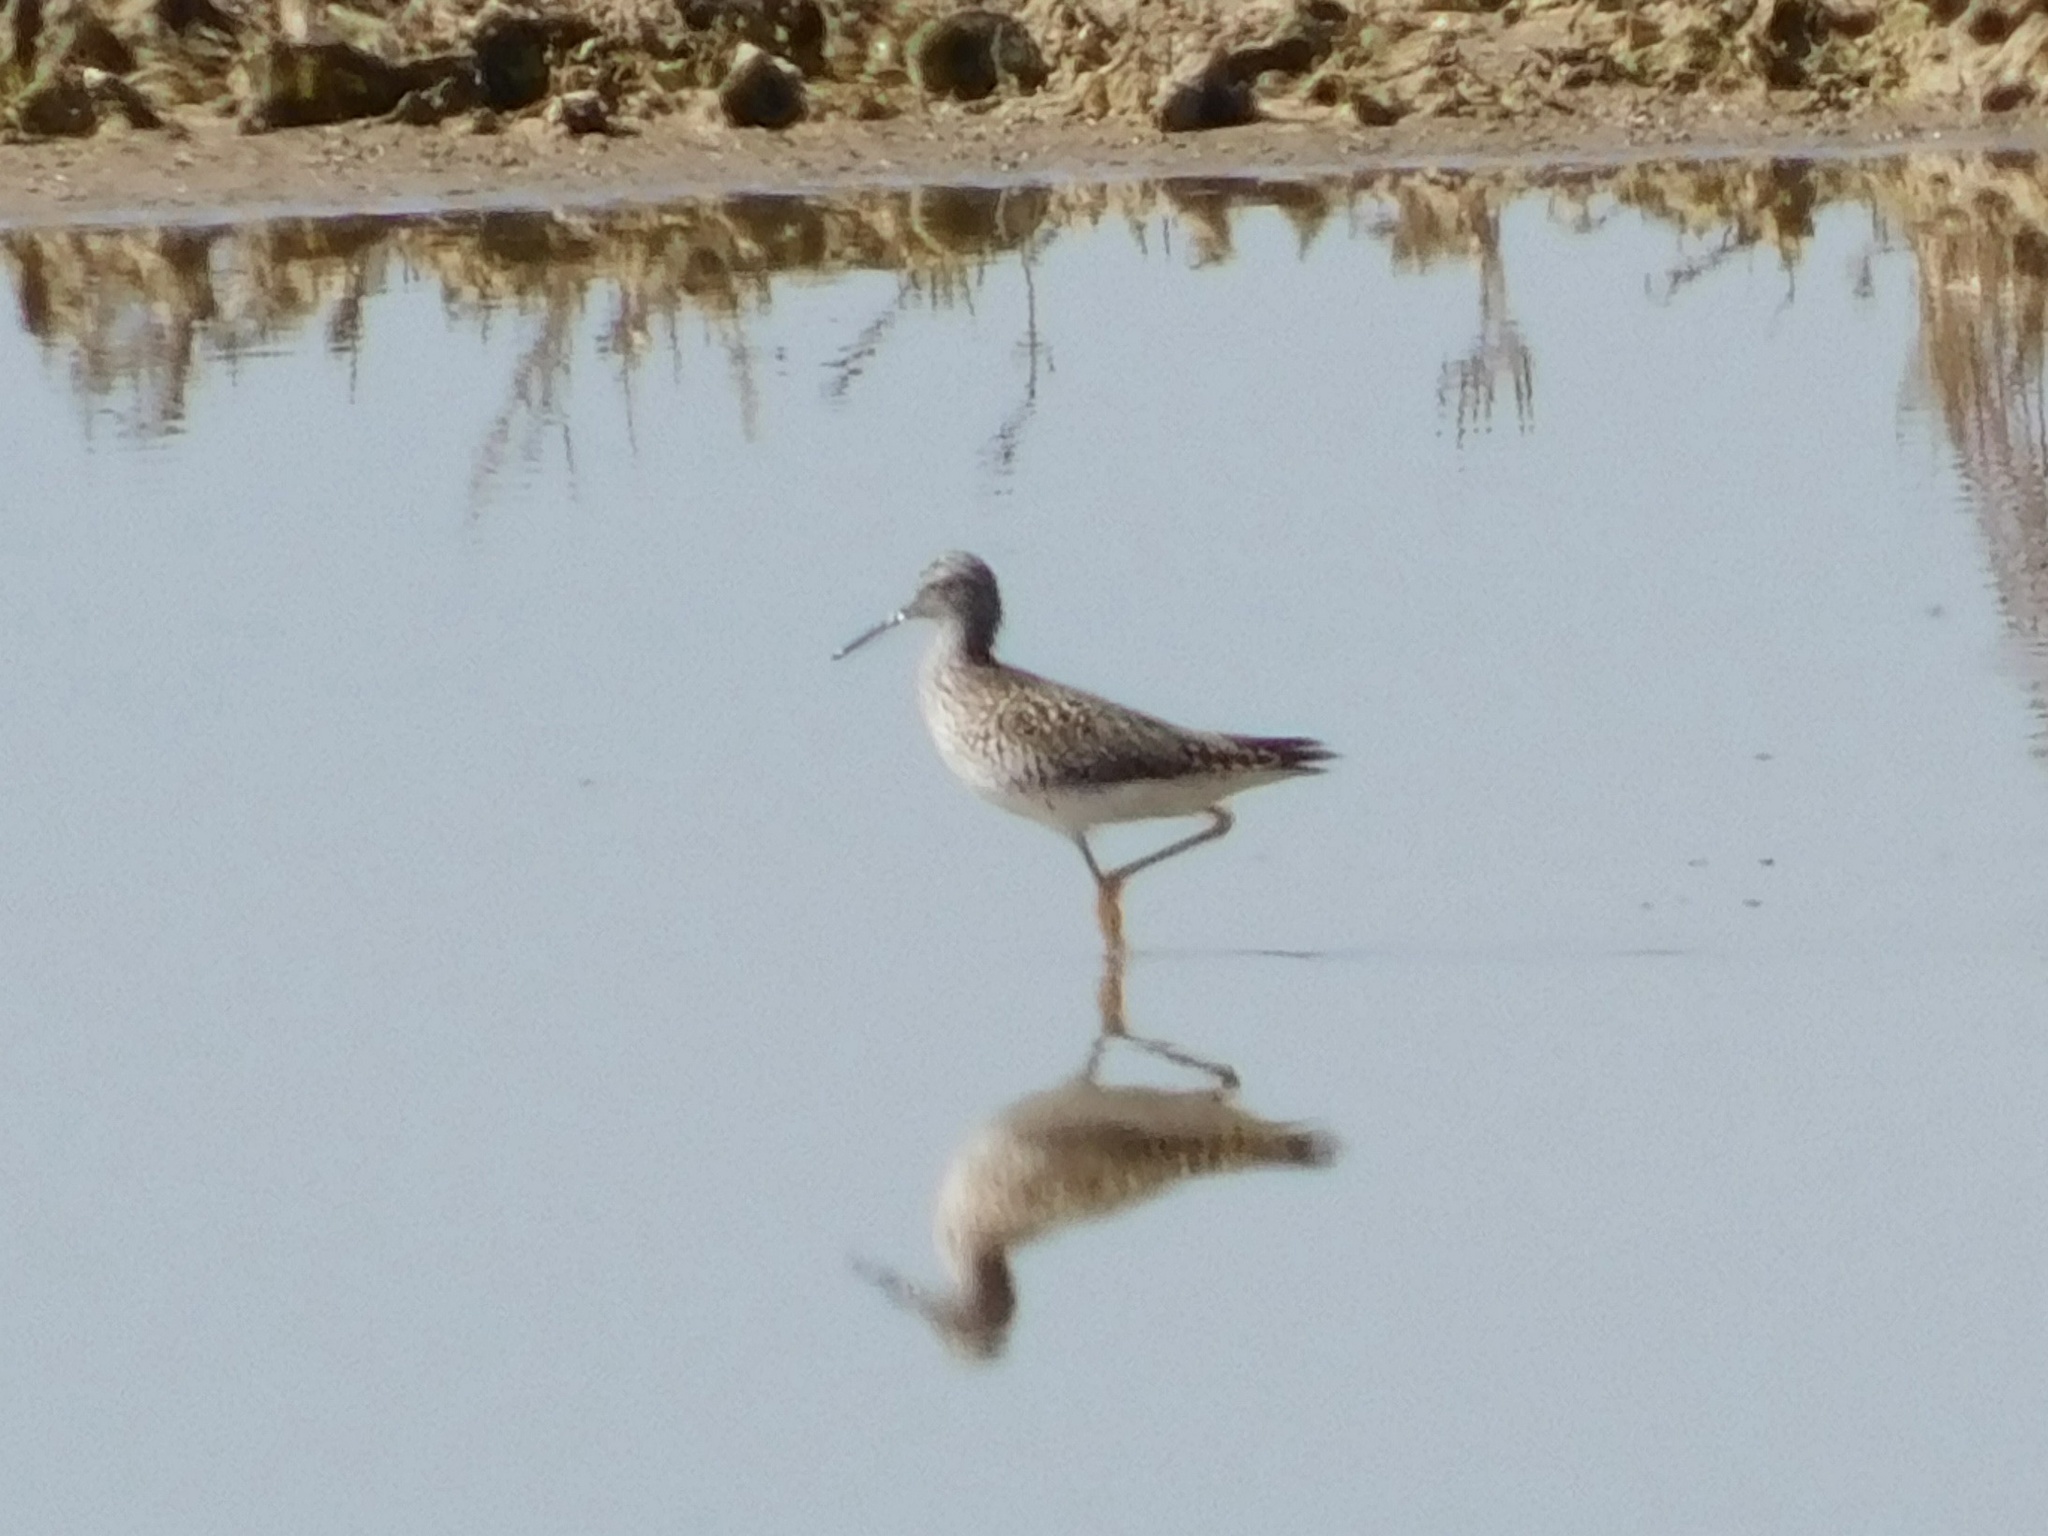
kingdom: Animalia
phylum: Chordata
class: Aves
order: Charadriiformes
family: Scolopacidae
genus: Tringa
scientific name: Tringa flavipes
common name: Lesser yellowlegs
